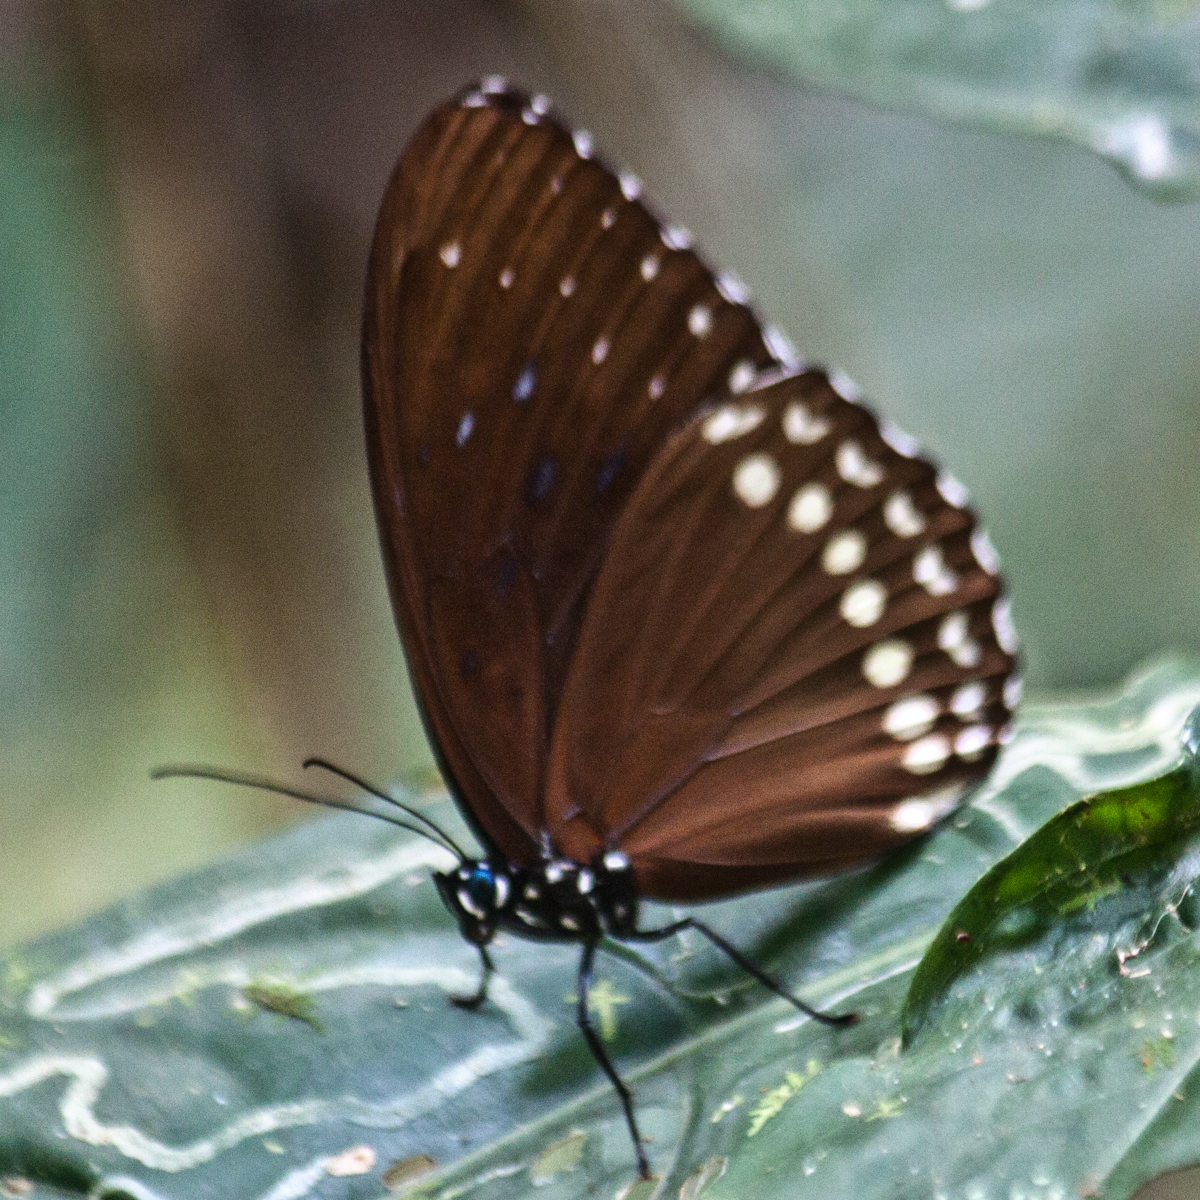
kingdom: Animalia
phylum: Arthropoda
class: Insecta
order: Lepidoptera
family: Nymphalidae
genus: Penthema
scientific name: Penthema darlisa
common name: Three-coloured kaiser
